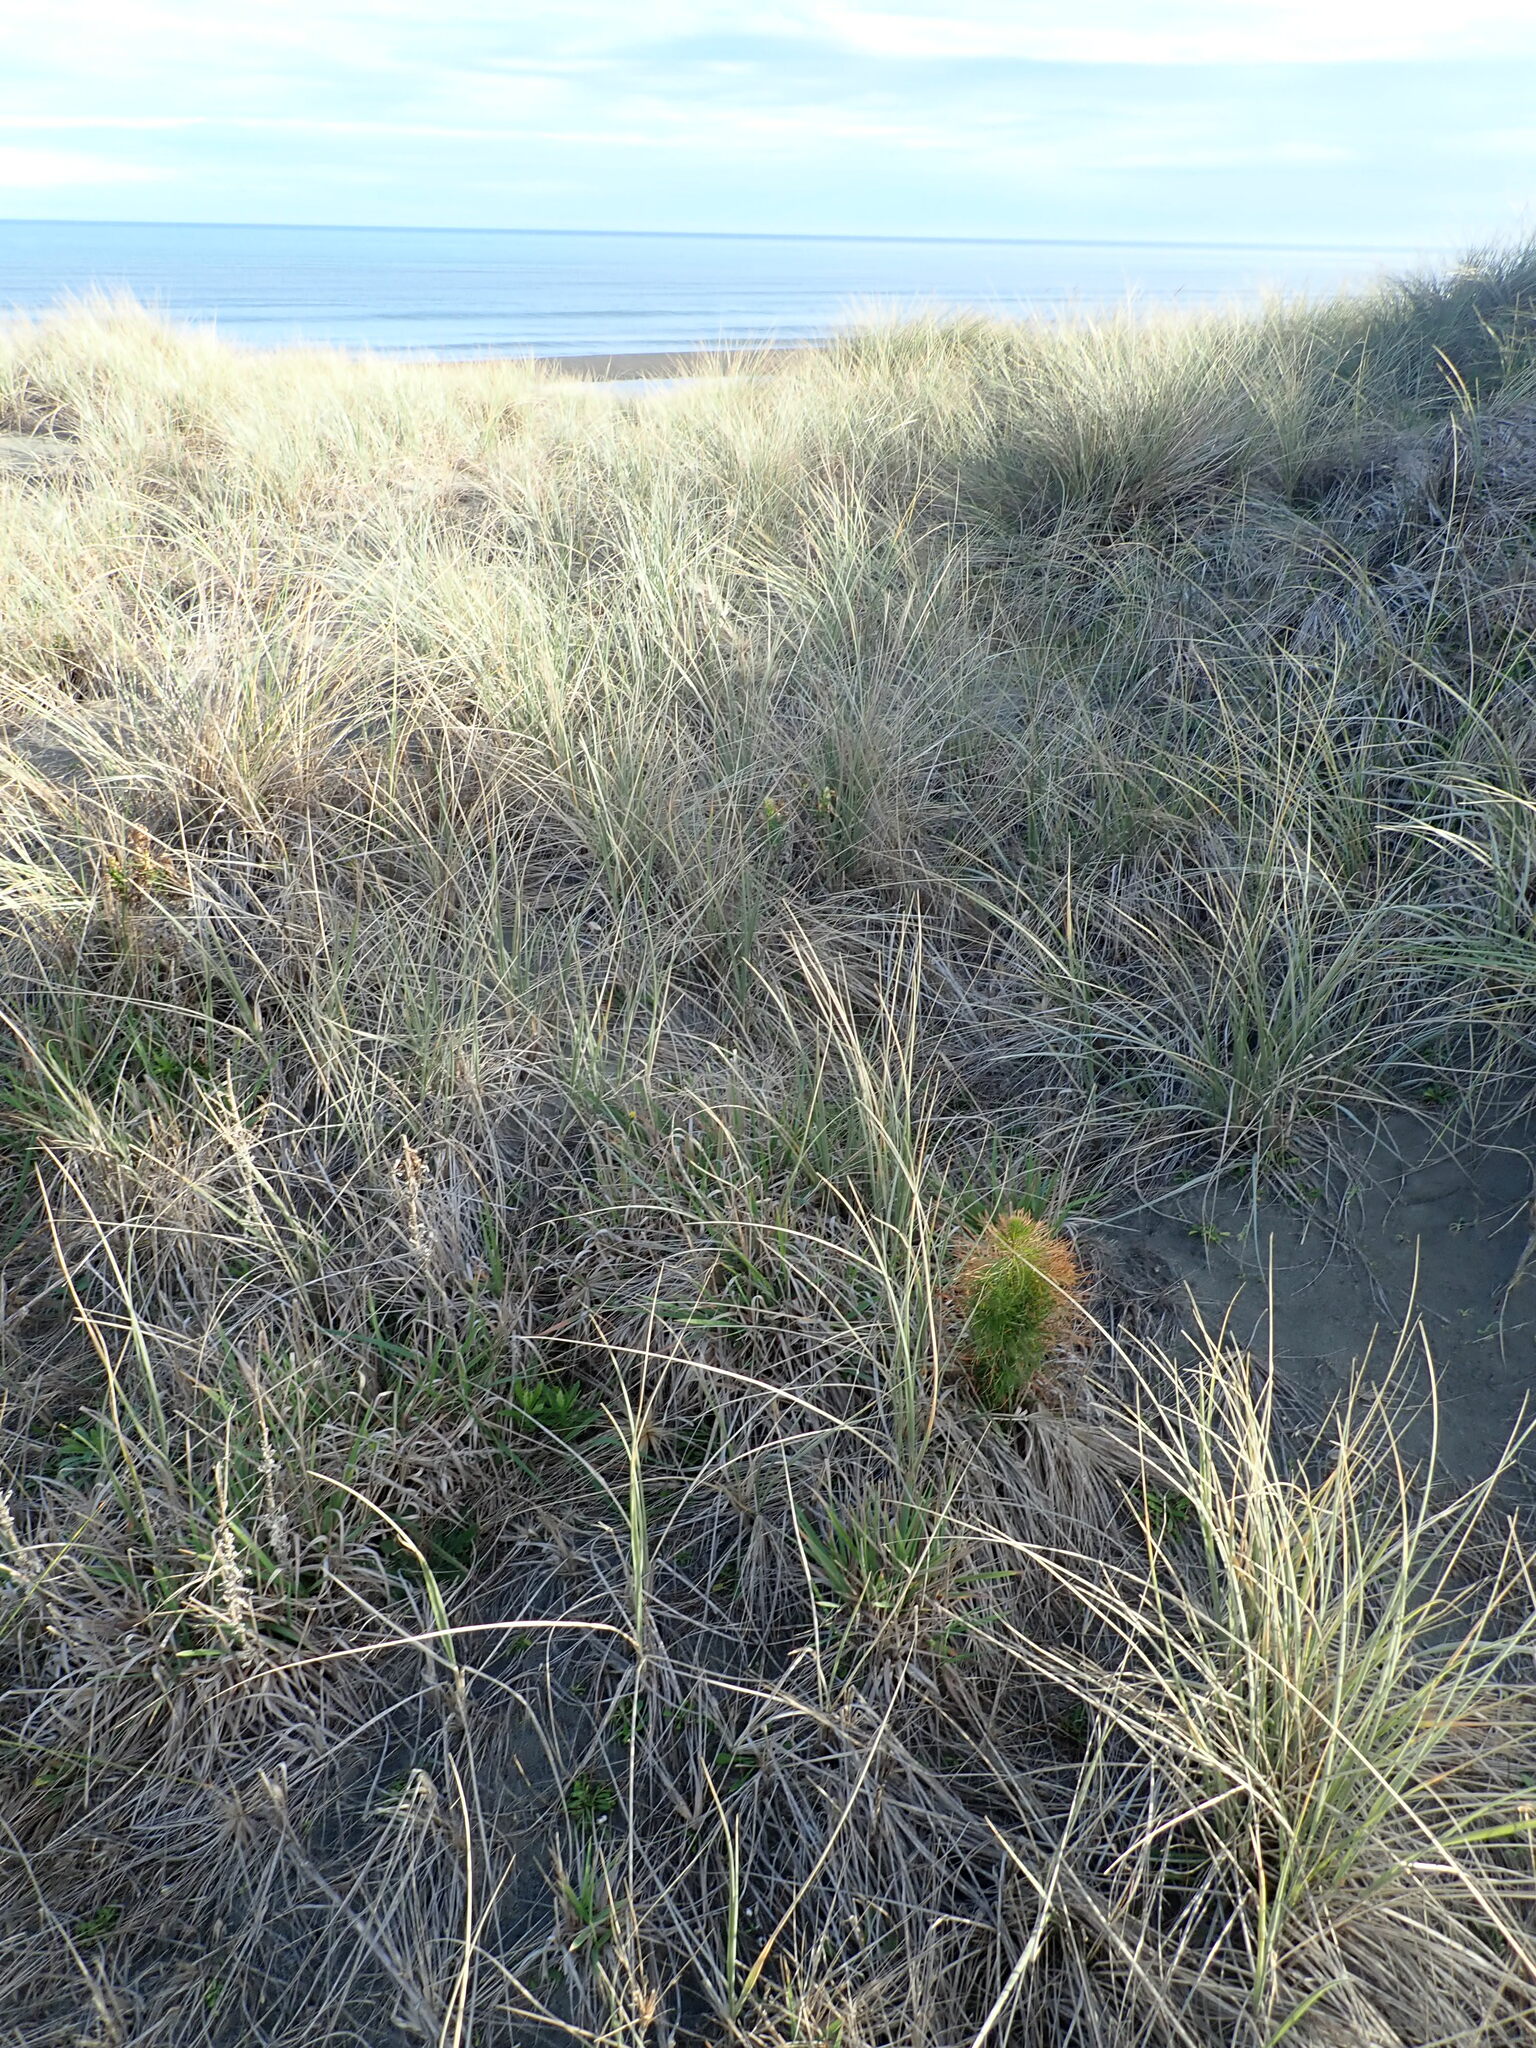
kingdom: Plantae
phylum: Tracheophyta
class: Pinopsida
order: Pinales
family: Pinaceae
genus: Pinus
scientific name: Pinus radiata
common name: Monterey pine
